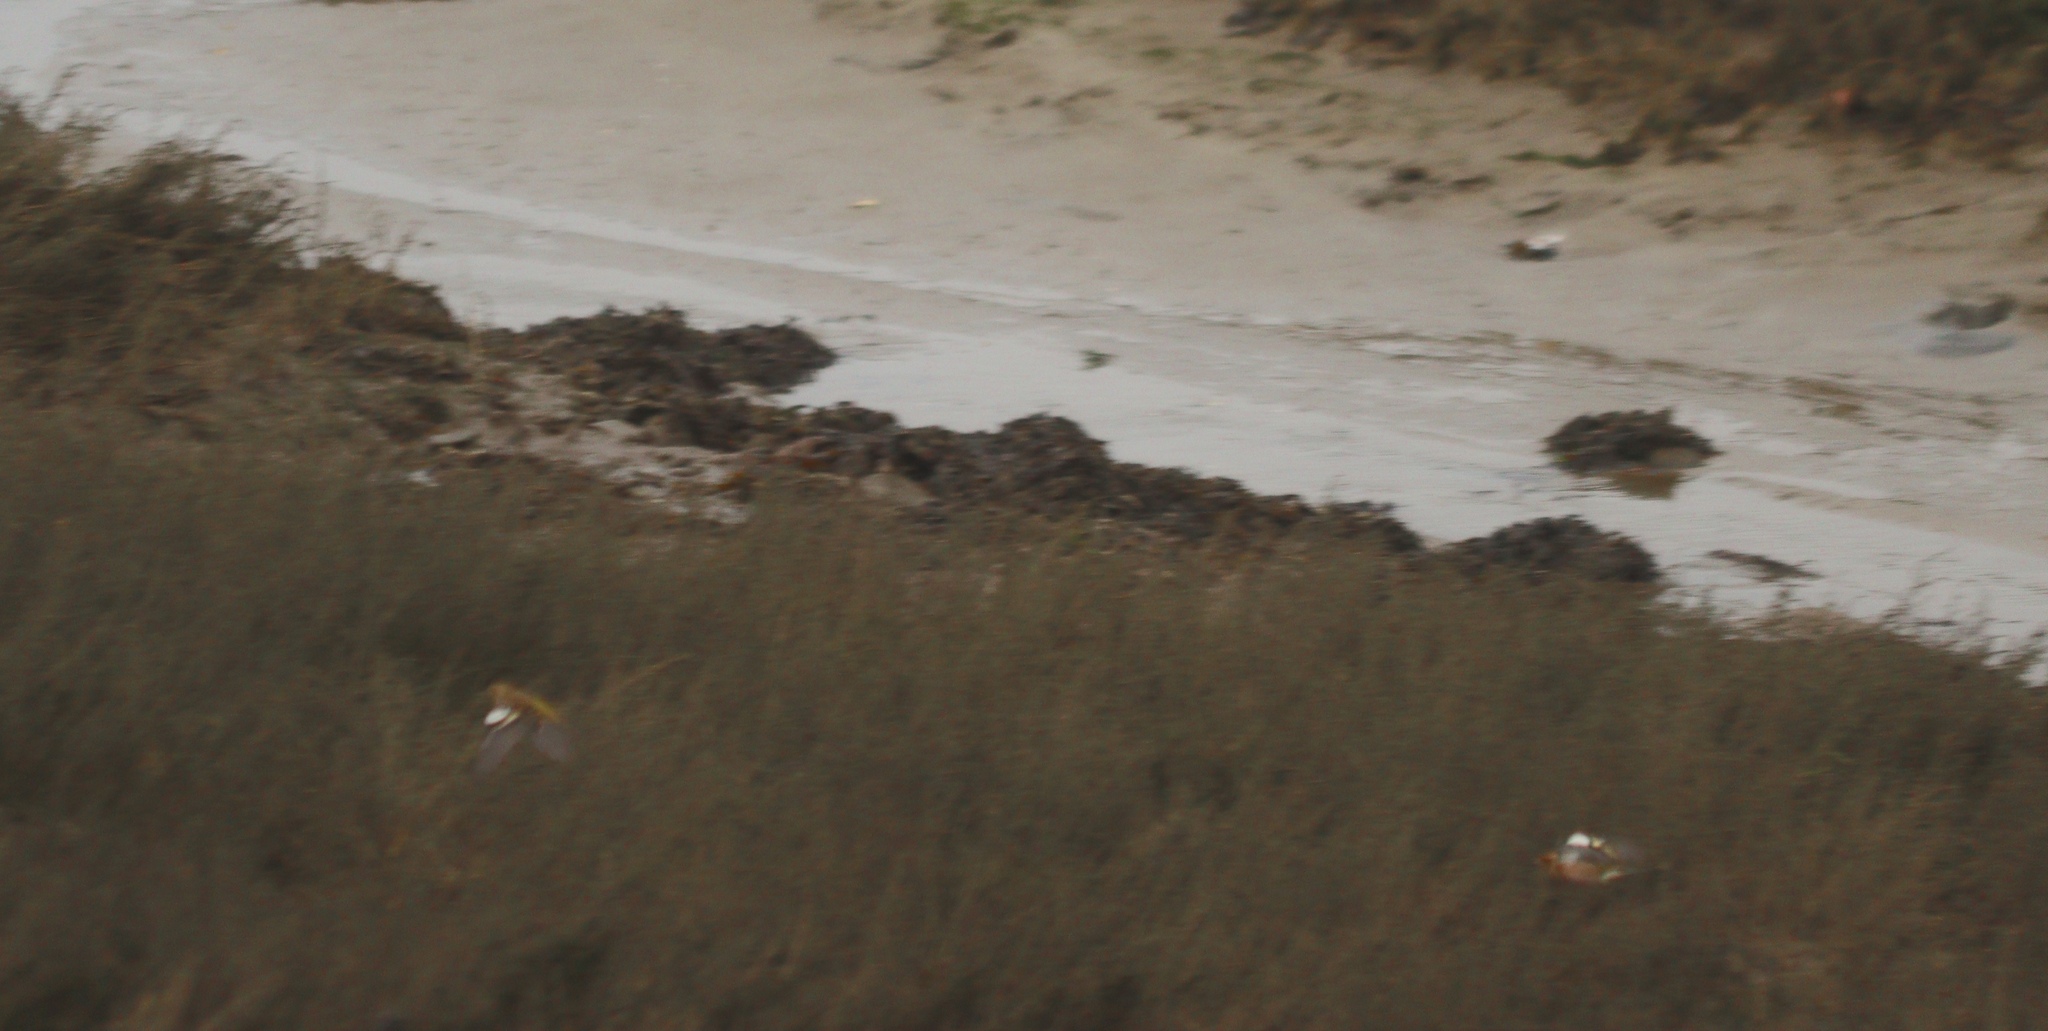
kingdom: Animalia
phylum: Chordata
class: Aves
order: Passeriformes
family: Fringillidae
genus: Fringilla
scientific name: Fringilla coelebs
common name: Common chaffinch
